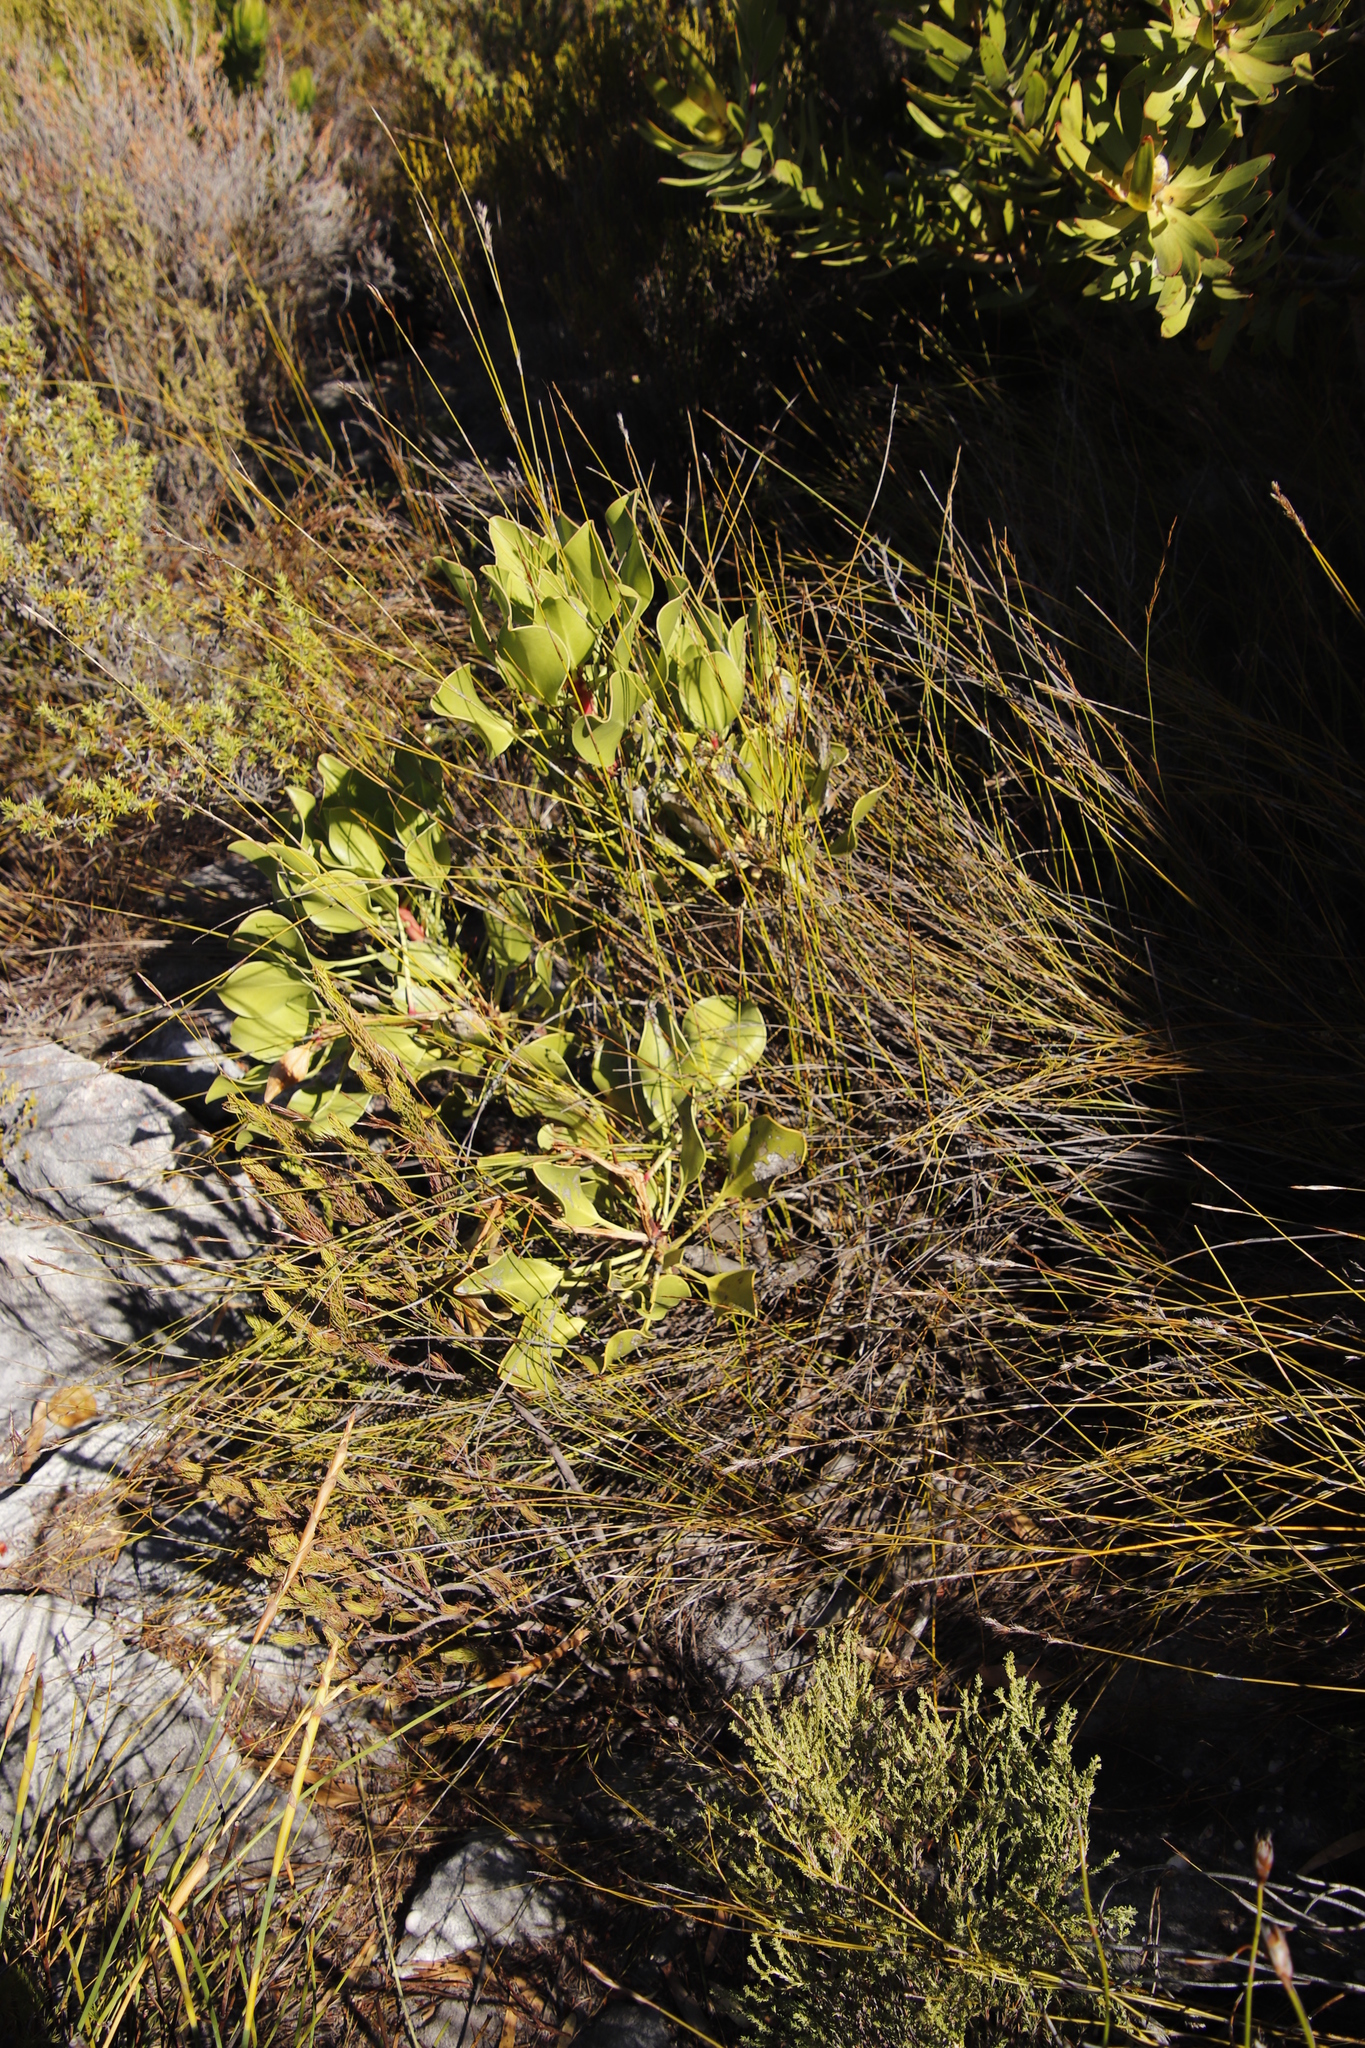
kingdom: Plantae
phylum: Tracheophyta
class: Magnoliopsida
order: Proteales
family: Proteaceae
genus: Protea
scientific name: Protea cynaroides
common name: King protea
